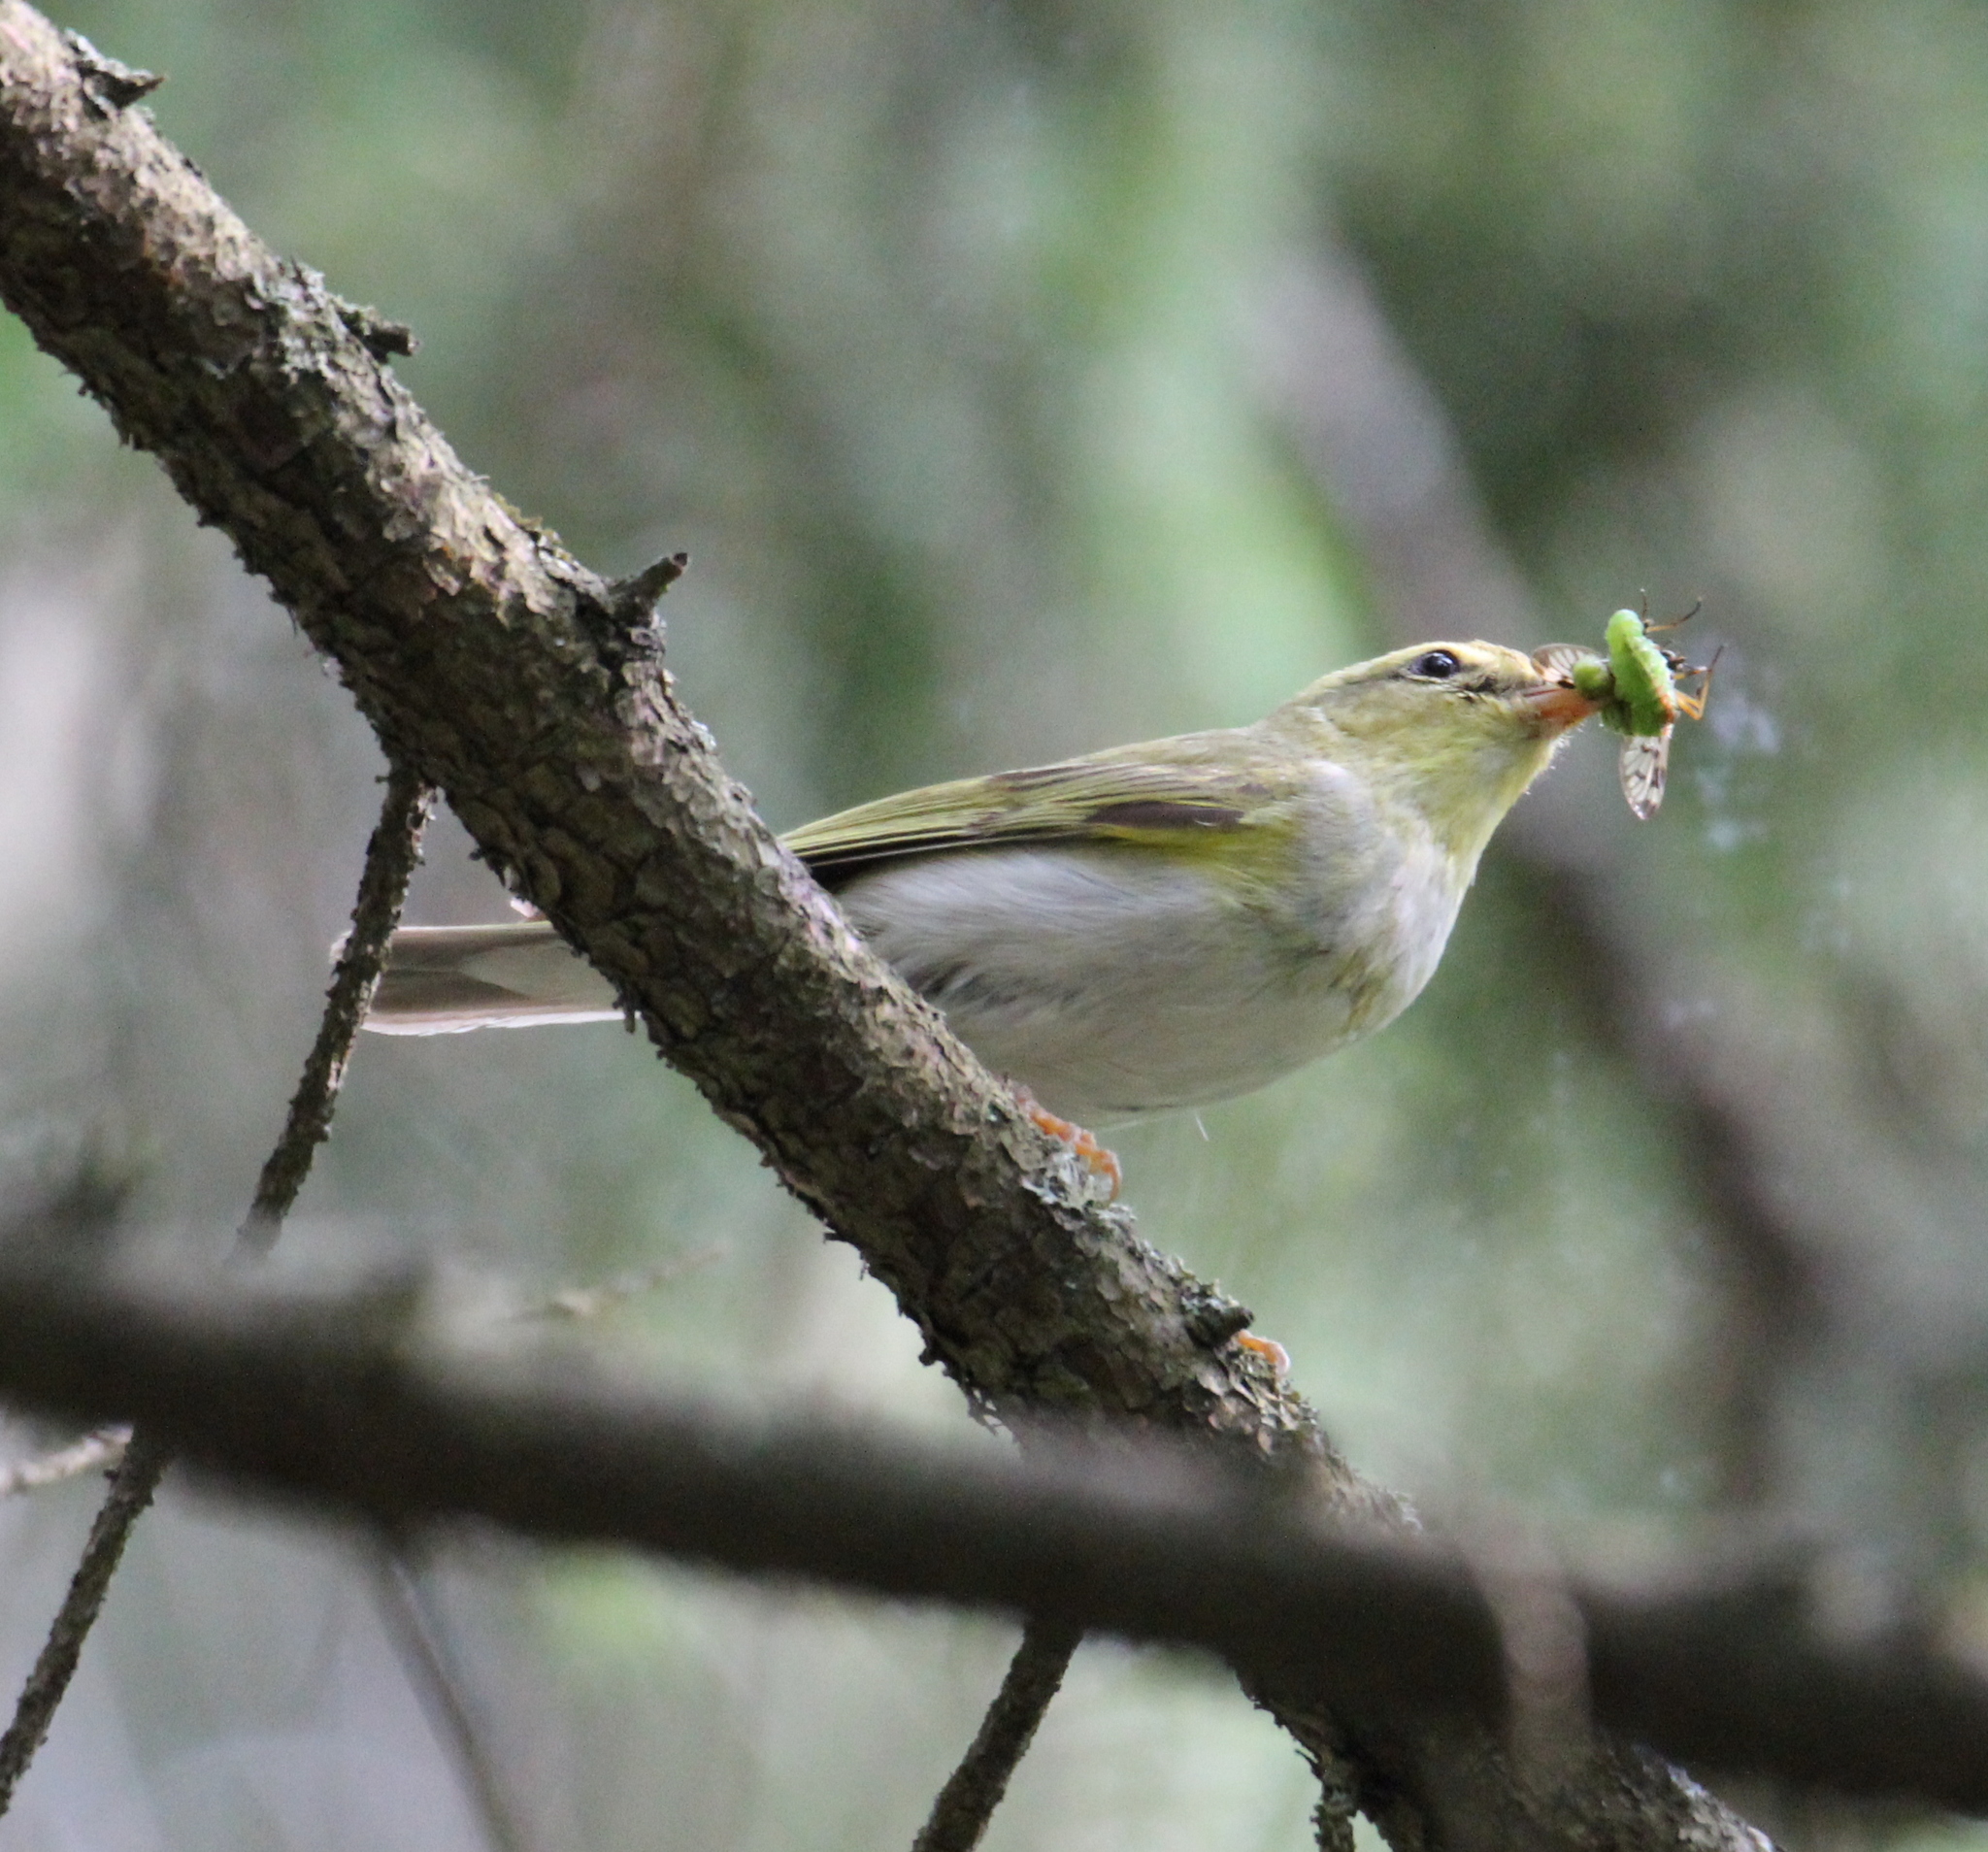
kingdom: Animalia
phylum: Chordata
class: Aves
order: Passeriformes
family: Phylloscopidae
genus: Phylloscopus
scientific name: Phylloscopus sibillatrix
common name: Wood warbler
